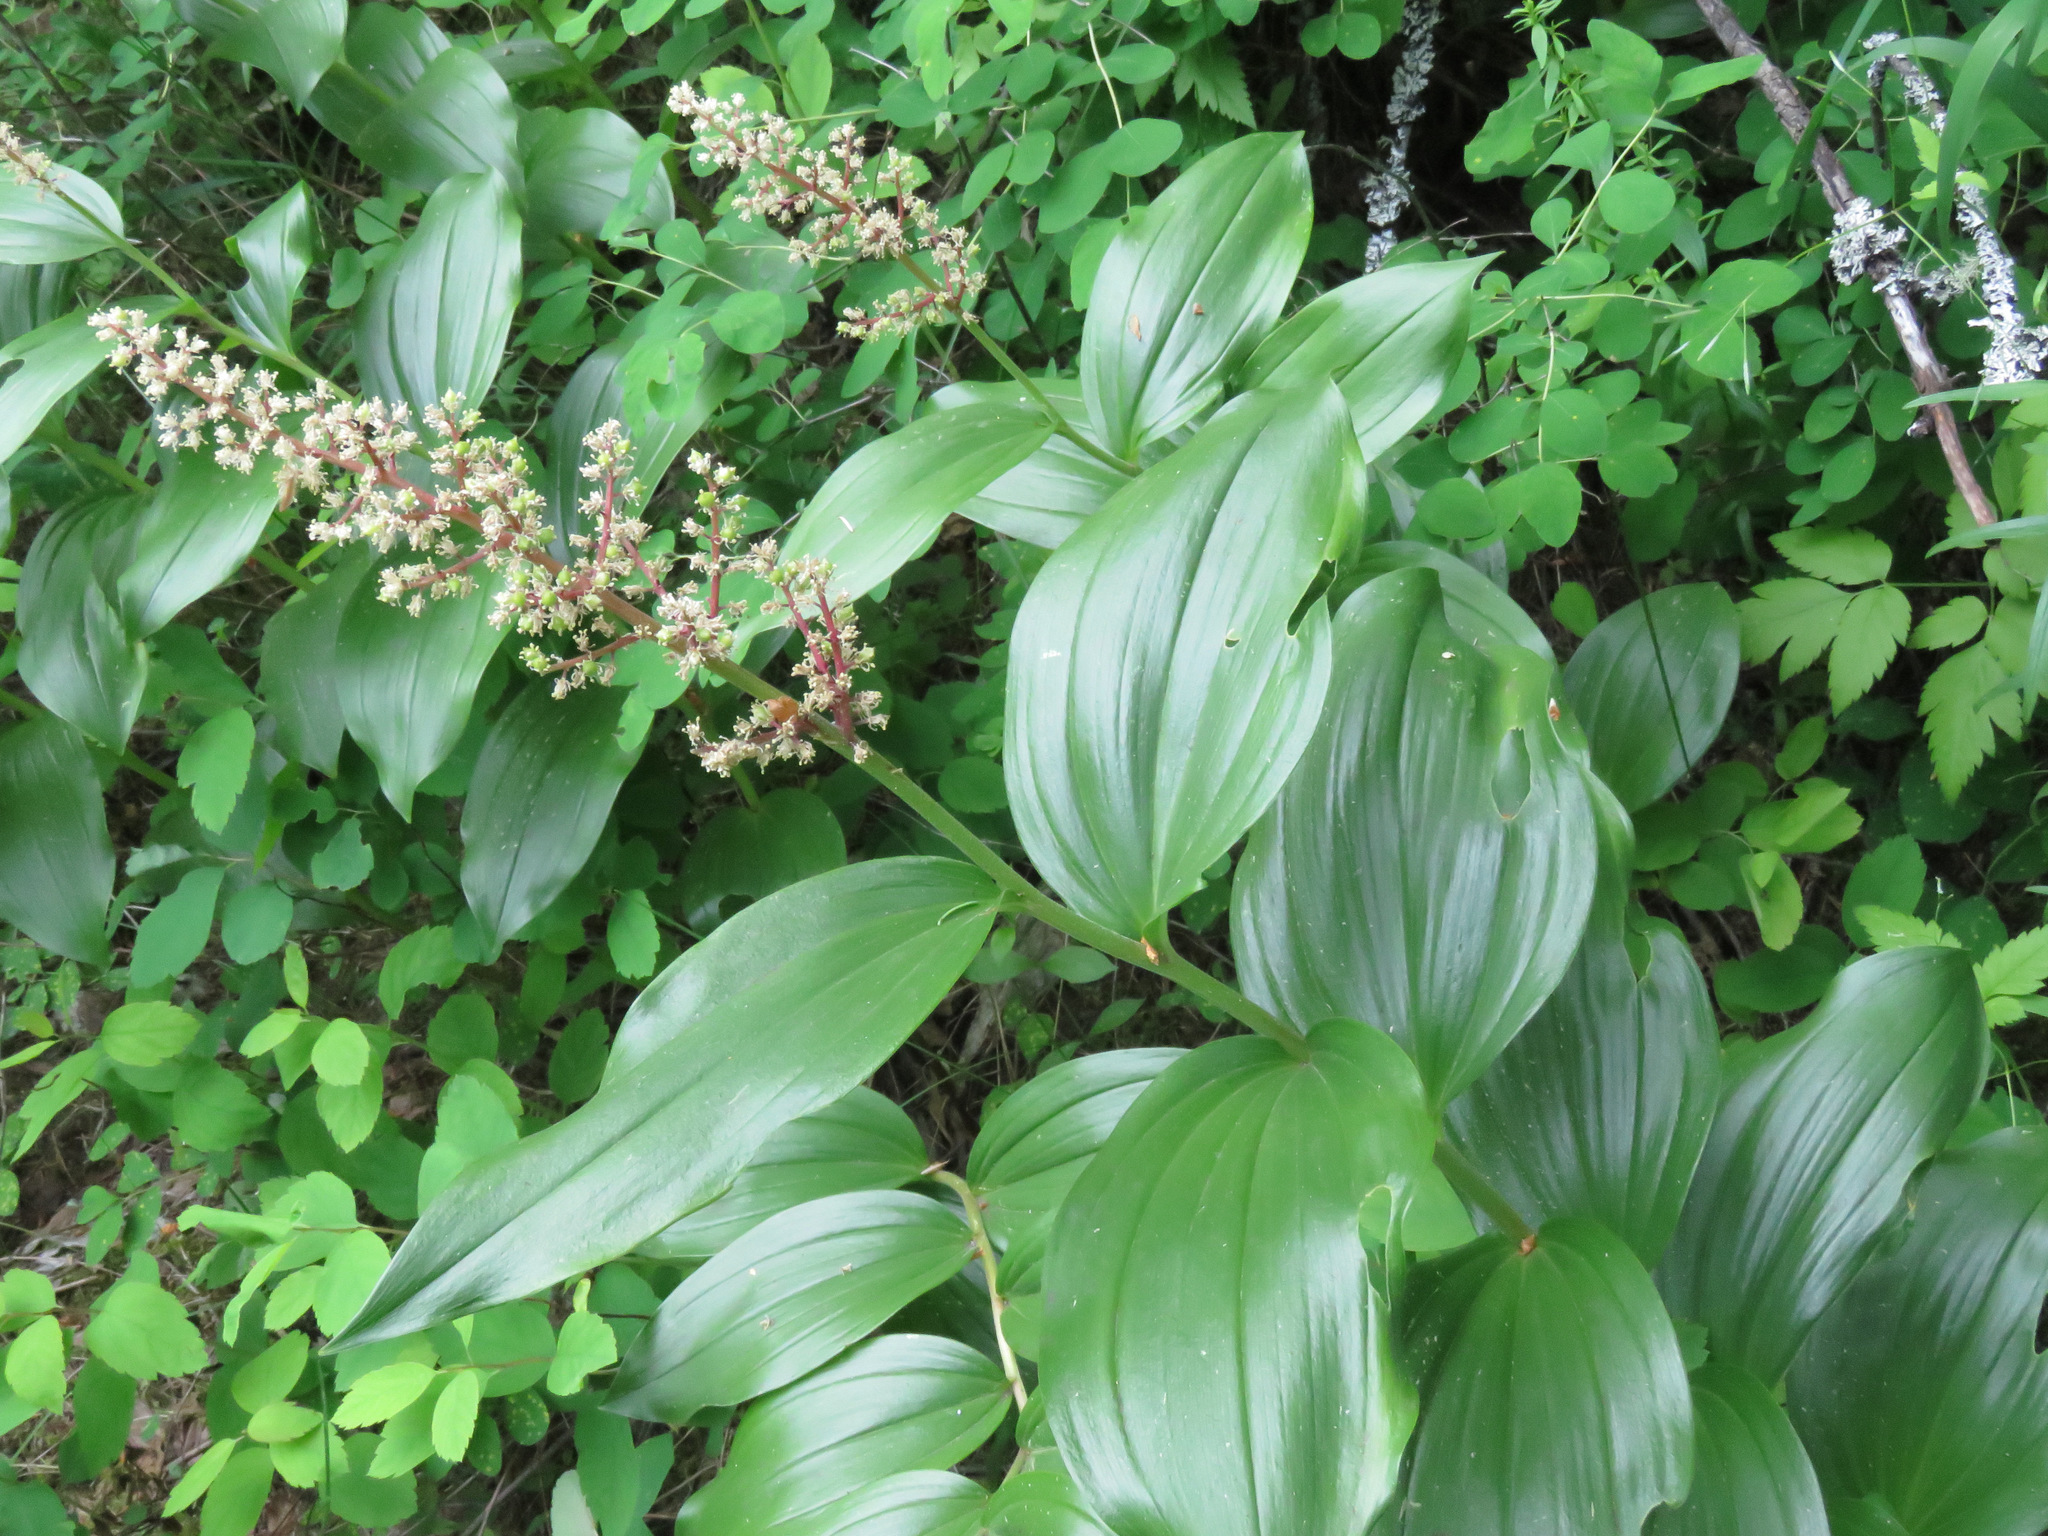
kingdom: Plantae
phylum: Tracheophyta
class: Liliopsida
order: Asparagales
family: Asparagaceae
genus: Maianthemum
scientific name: Maianthemum racemosum
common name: False spikenard
